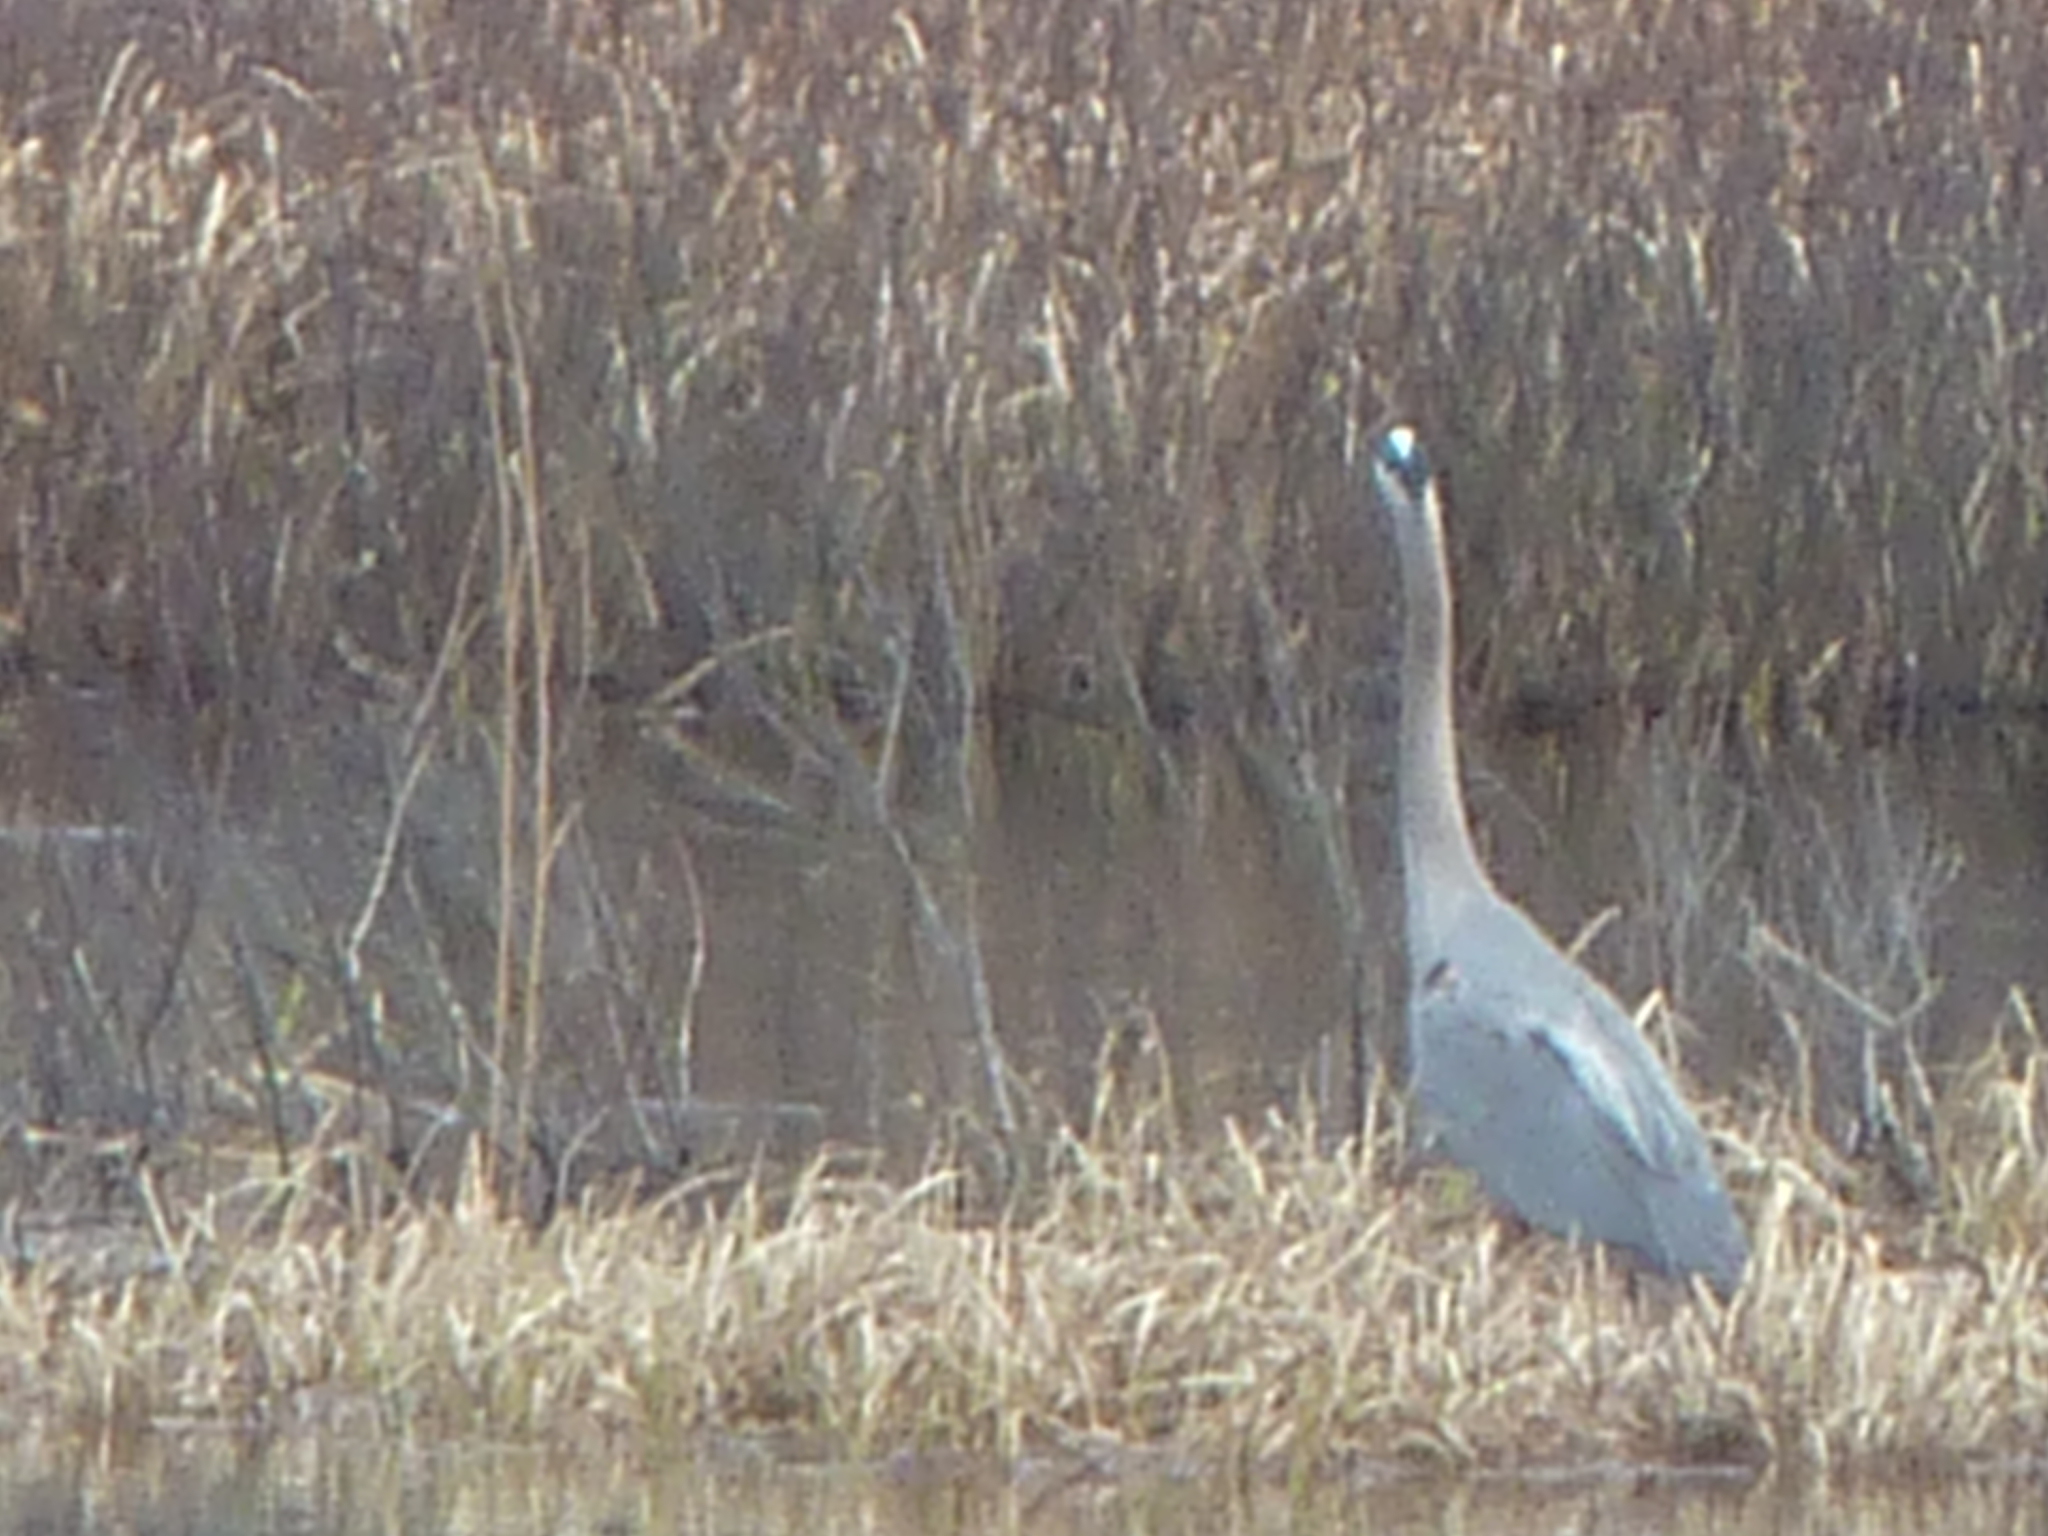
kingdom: Animalia
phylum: Chordata
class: Aves
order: Pelecaniformes
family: Ardeidae
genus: Ardea
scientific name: Ardea herodias
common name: Great blue heron
